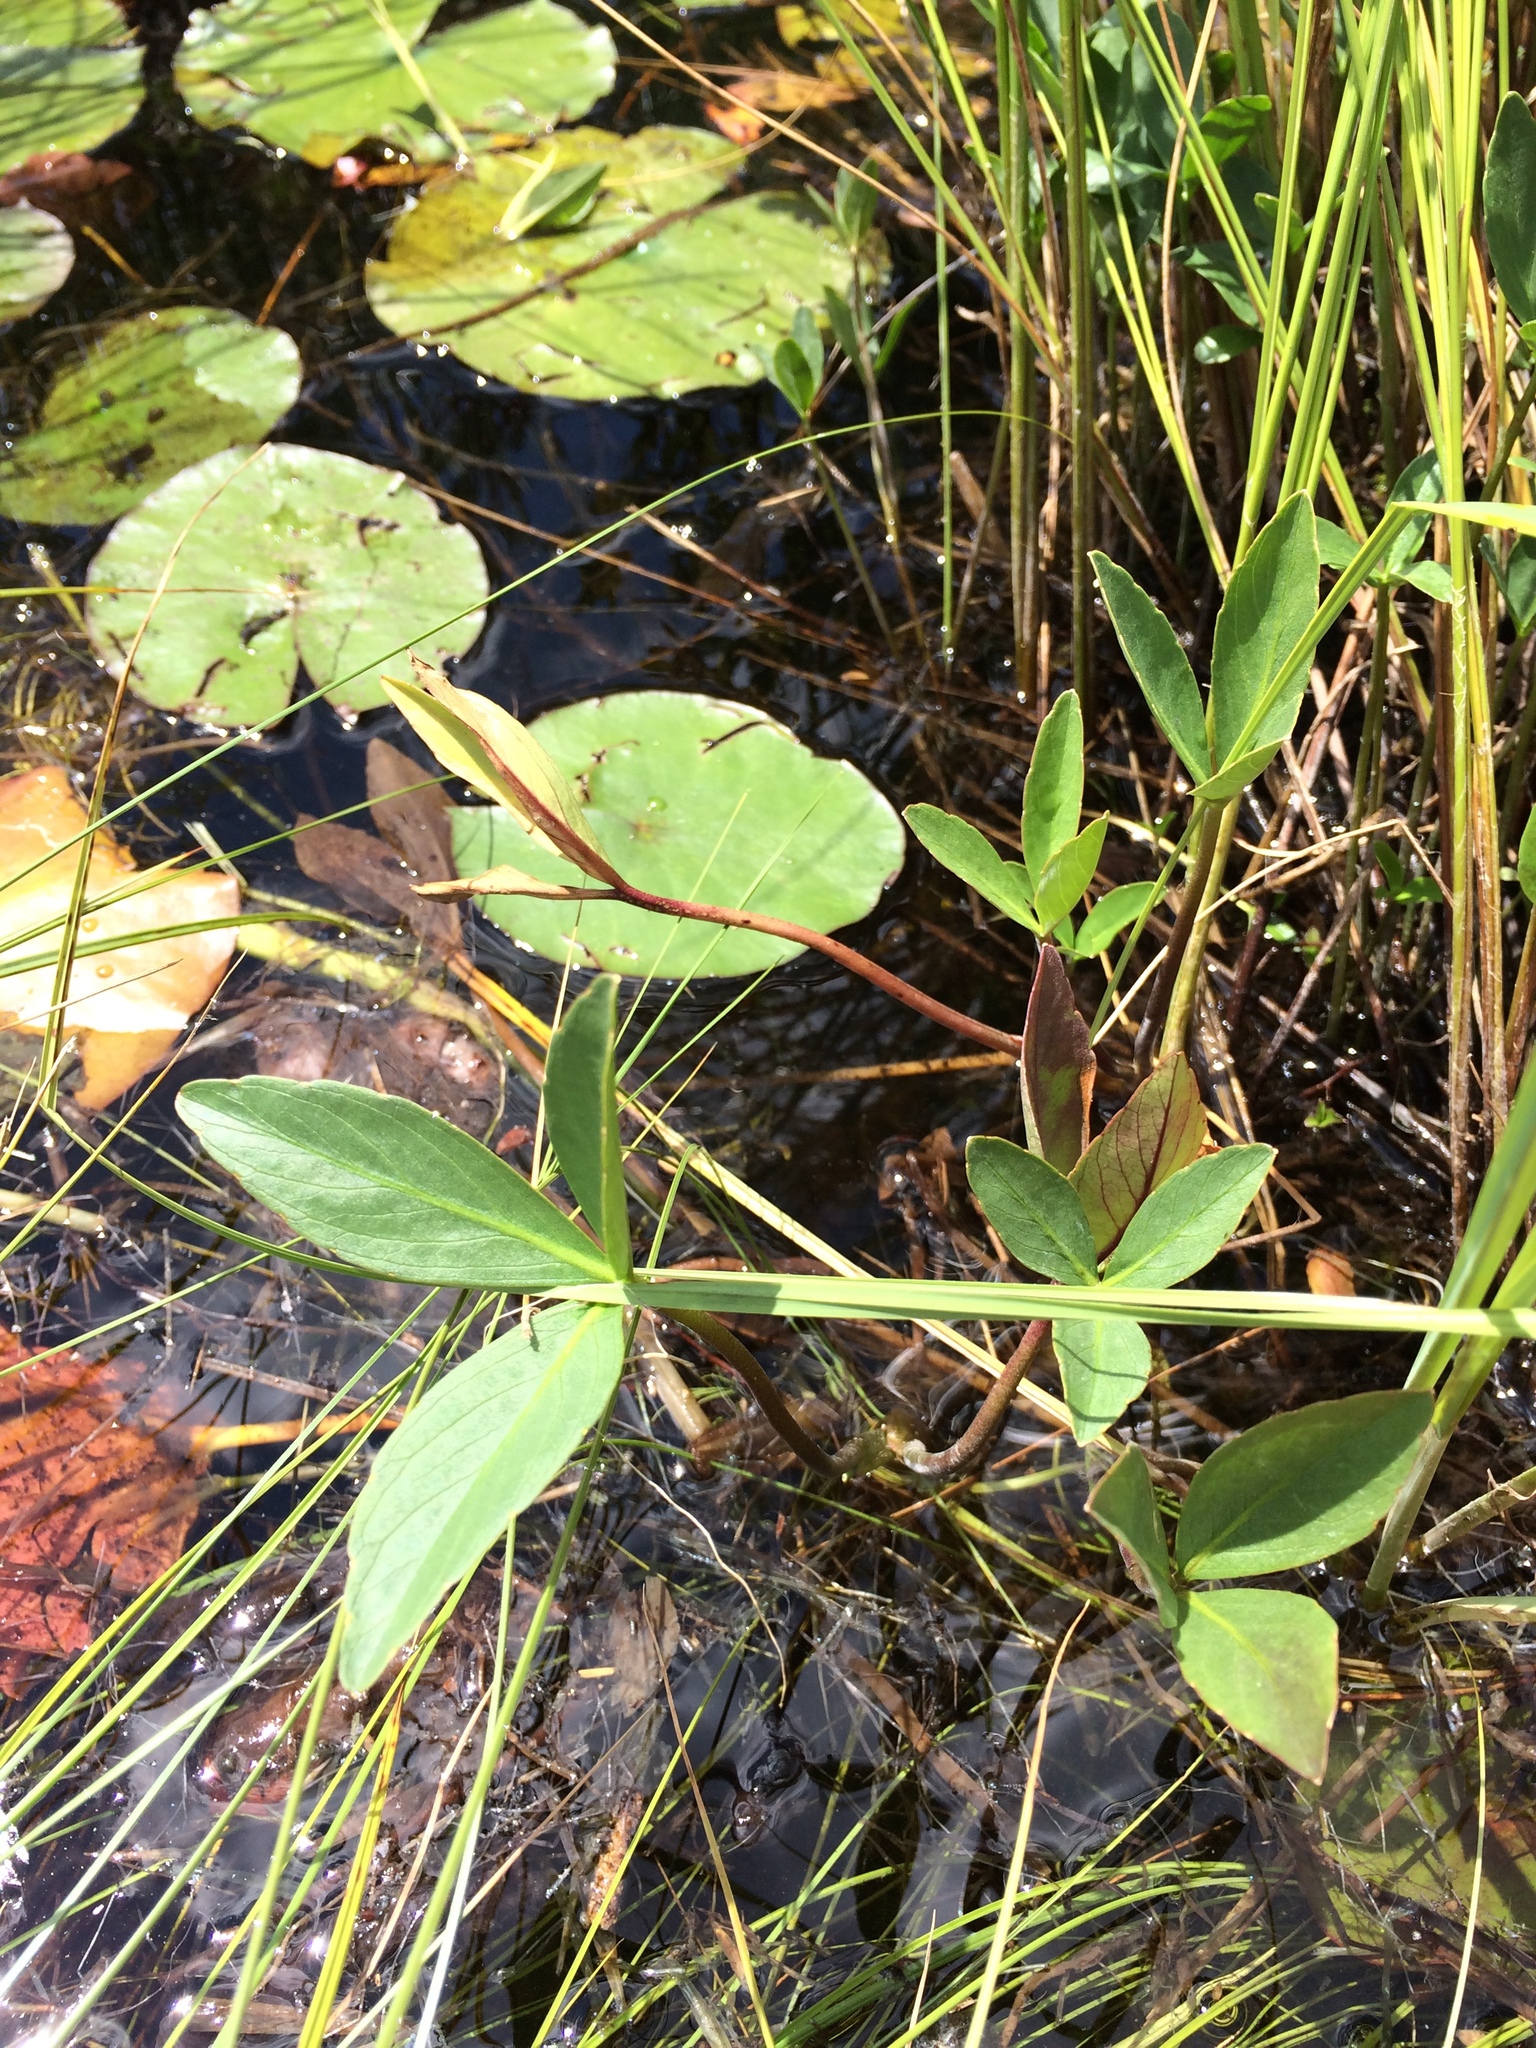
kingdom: Plantae
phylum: Tracheophyta
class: Magnoliopsida
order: Asterales
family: Menyanthaceae
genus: Menyanthes
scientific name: Menyanthes trifoliata
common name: Bogbean
